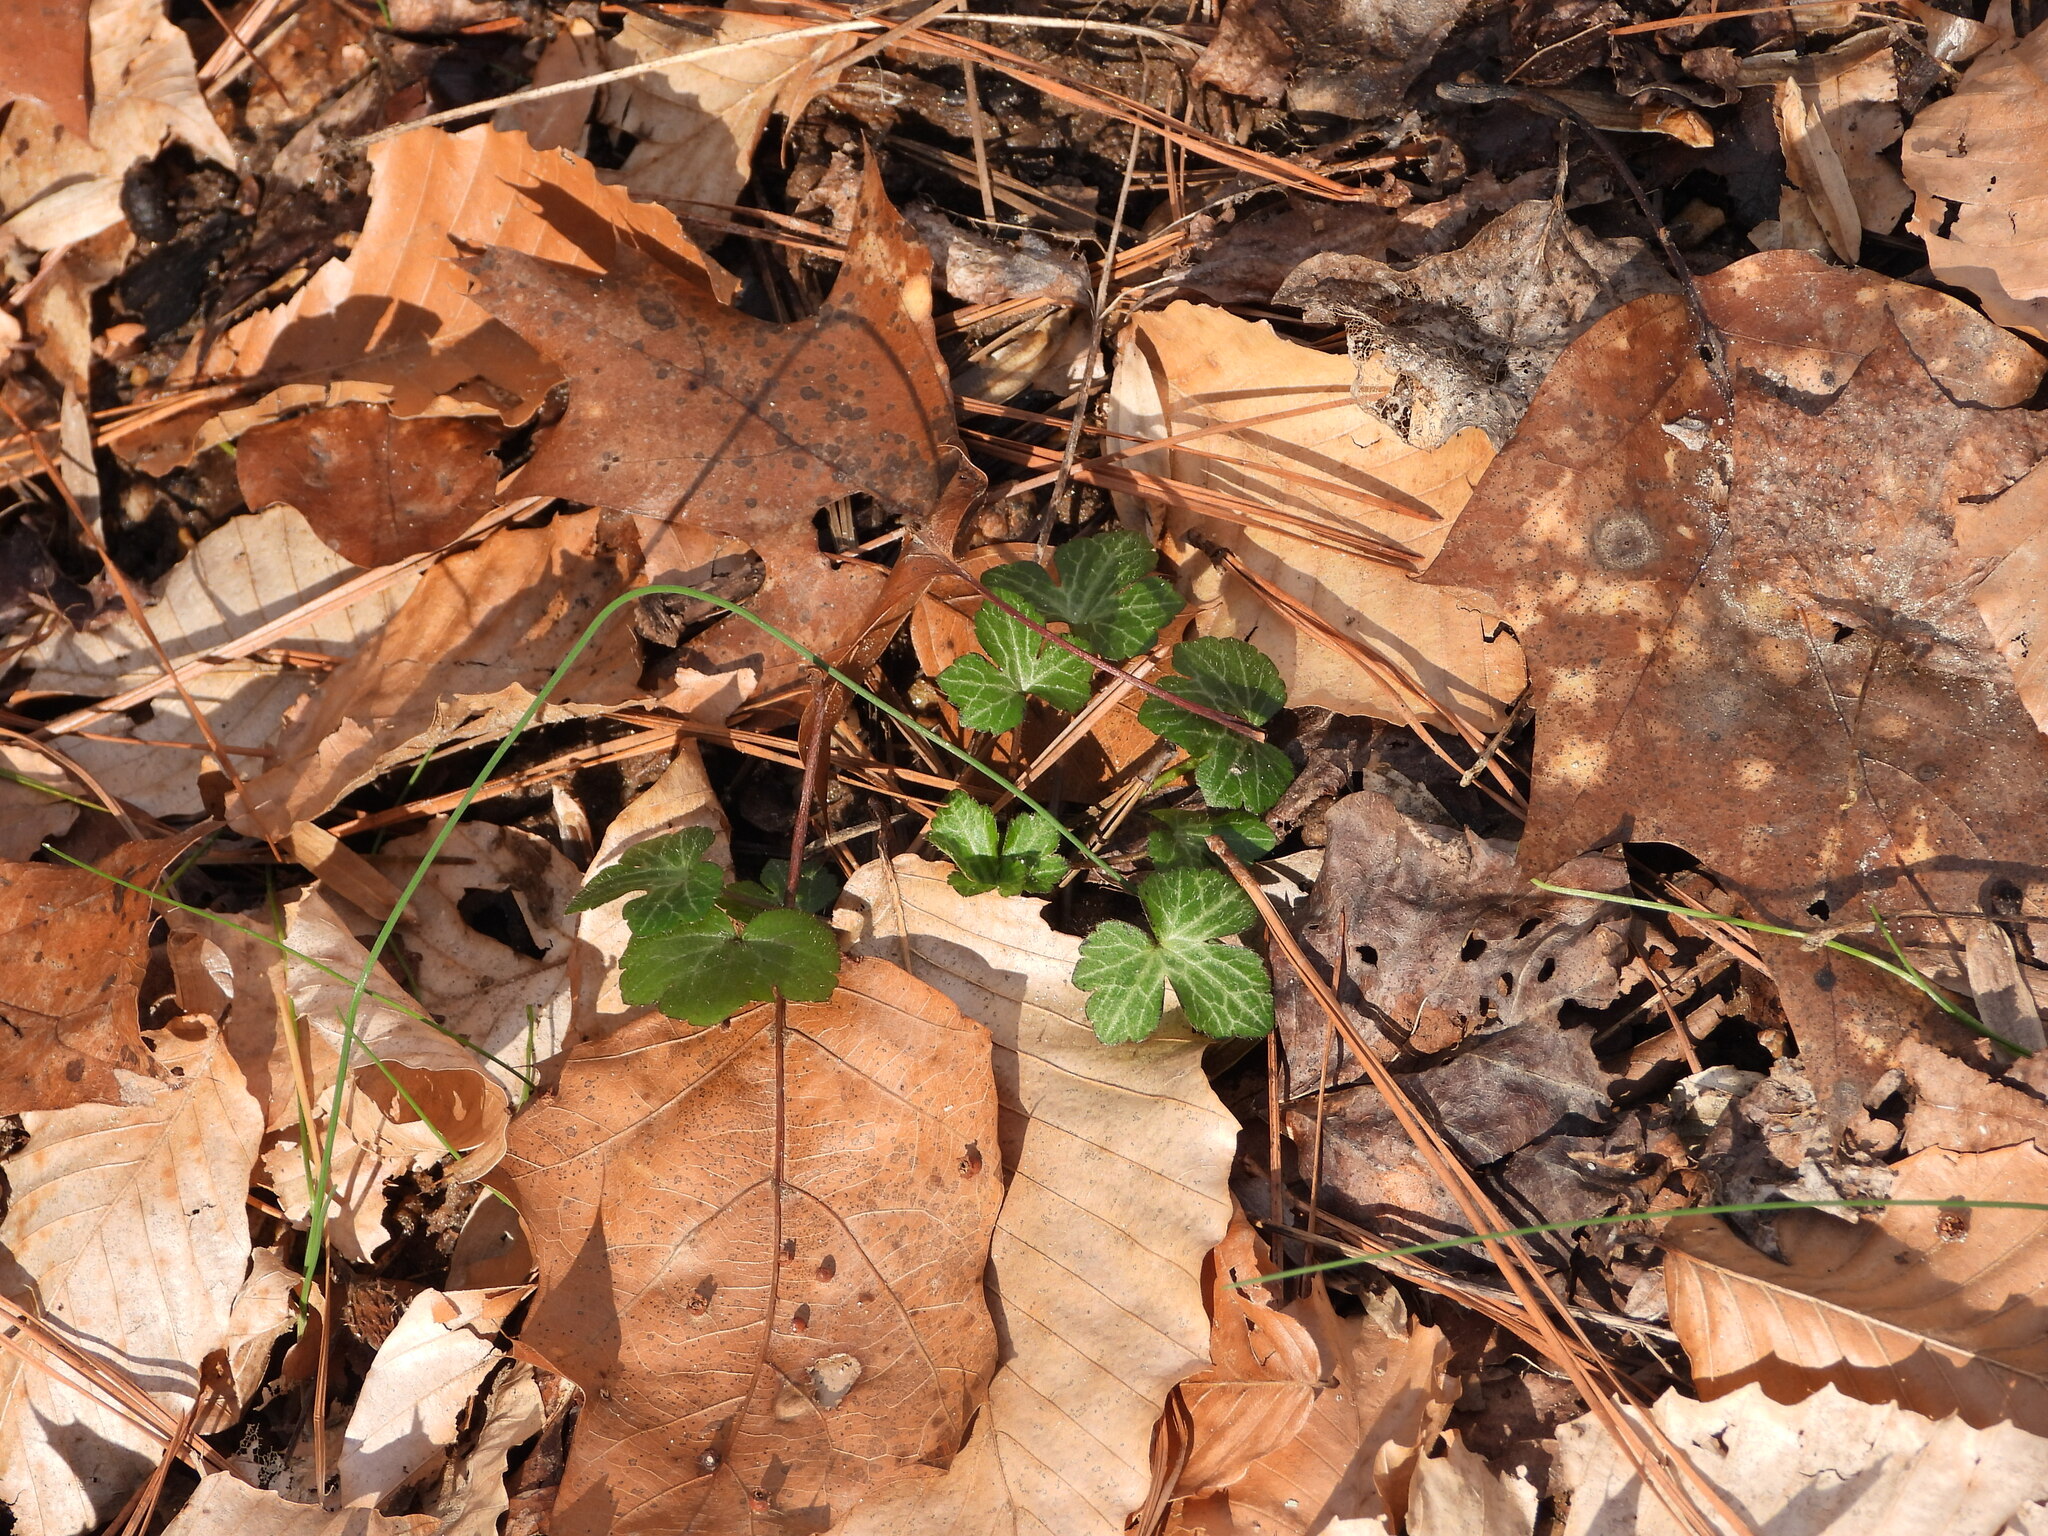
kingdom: Plantae
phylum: Tracheophyta
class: Magnoliopsida
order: Ranunculales
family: Ranunculaceae
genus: Ranunculus
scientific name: Ranunculus recurvatus
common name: Blisterwort
